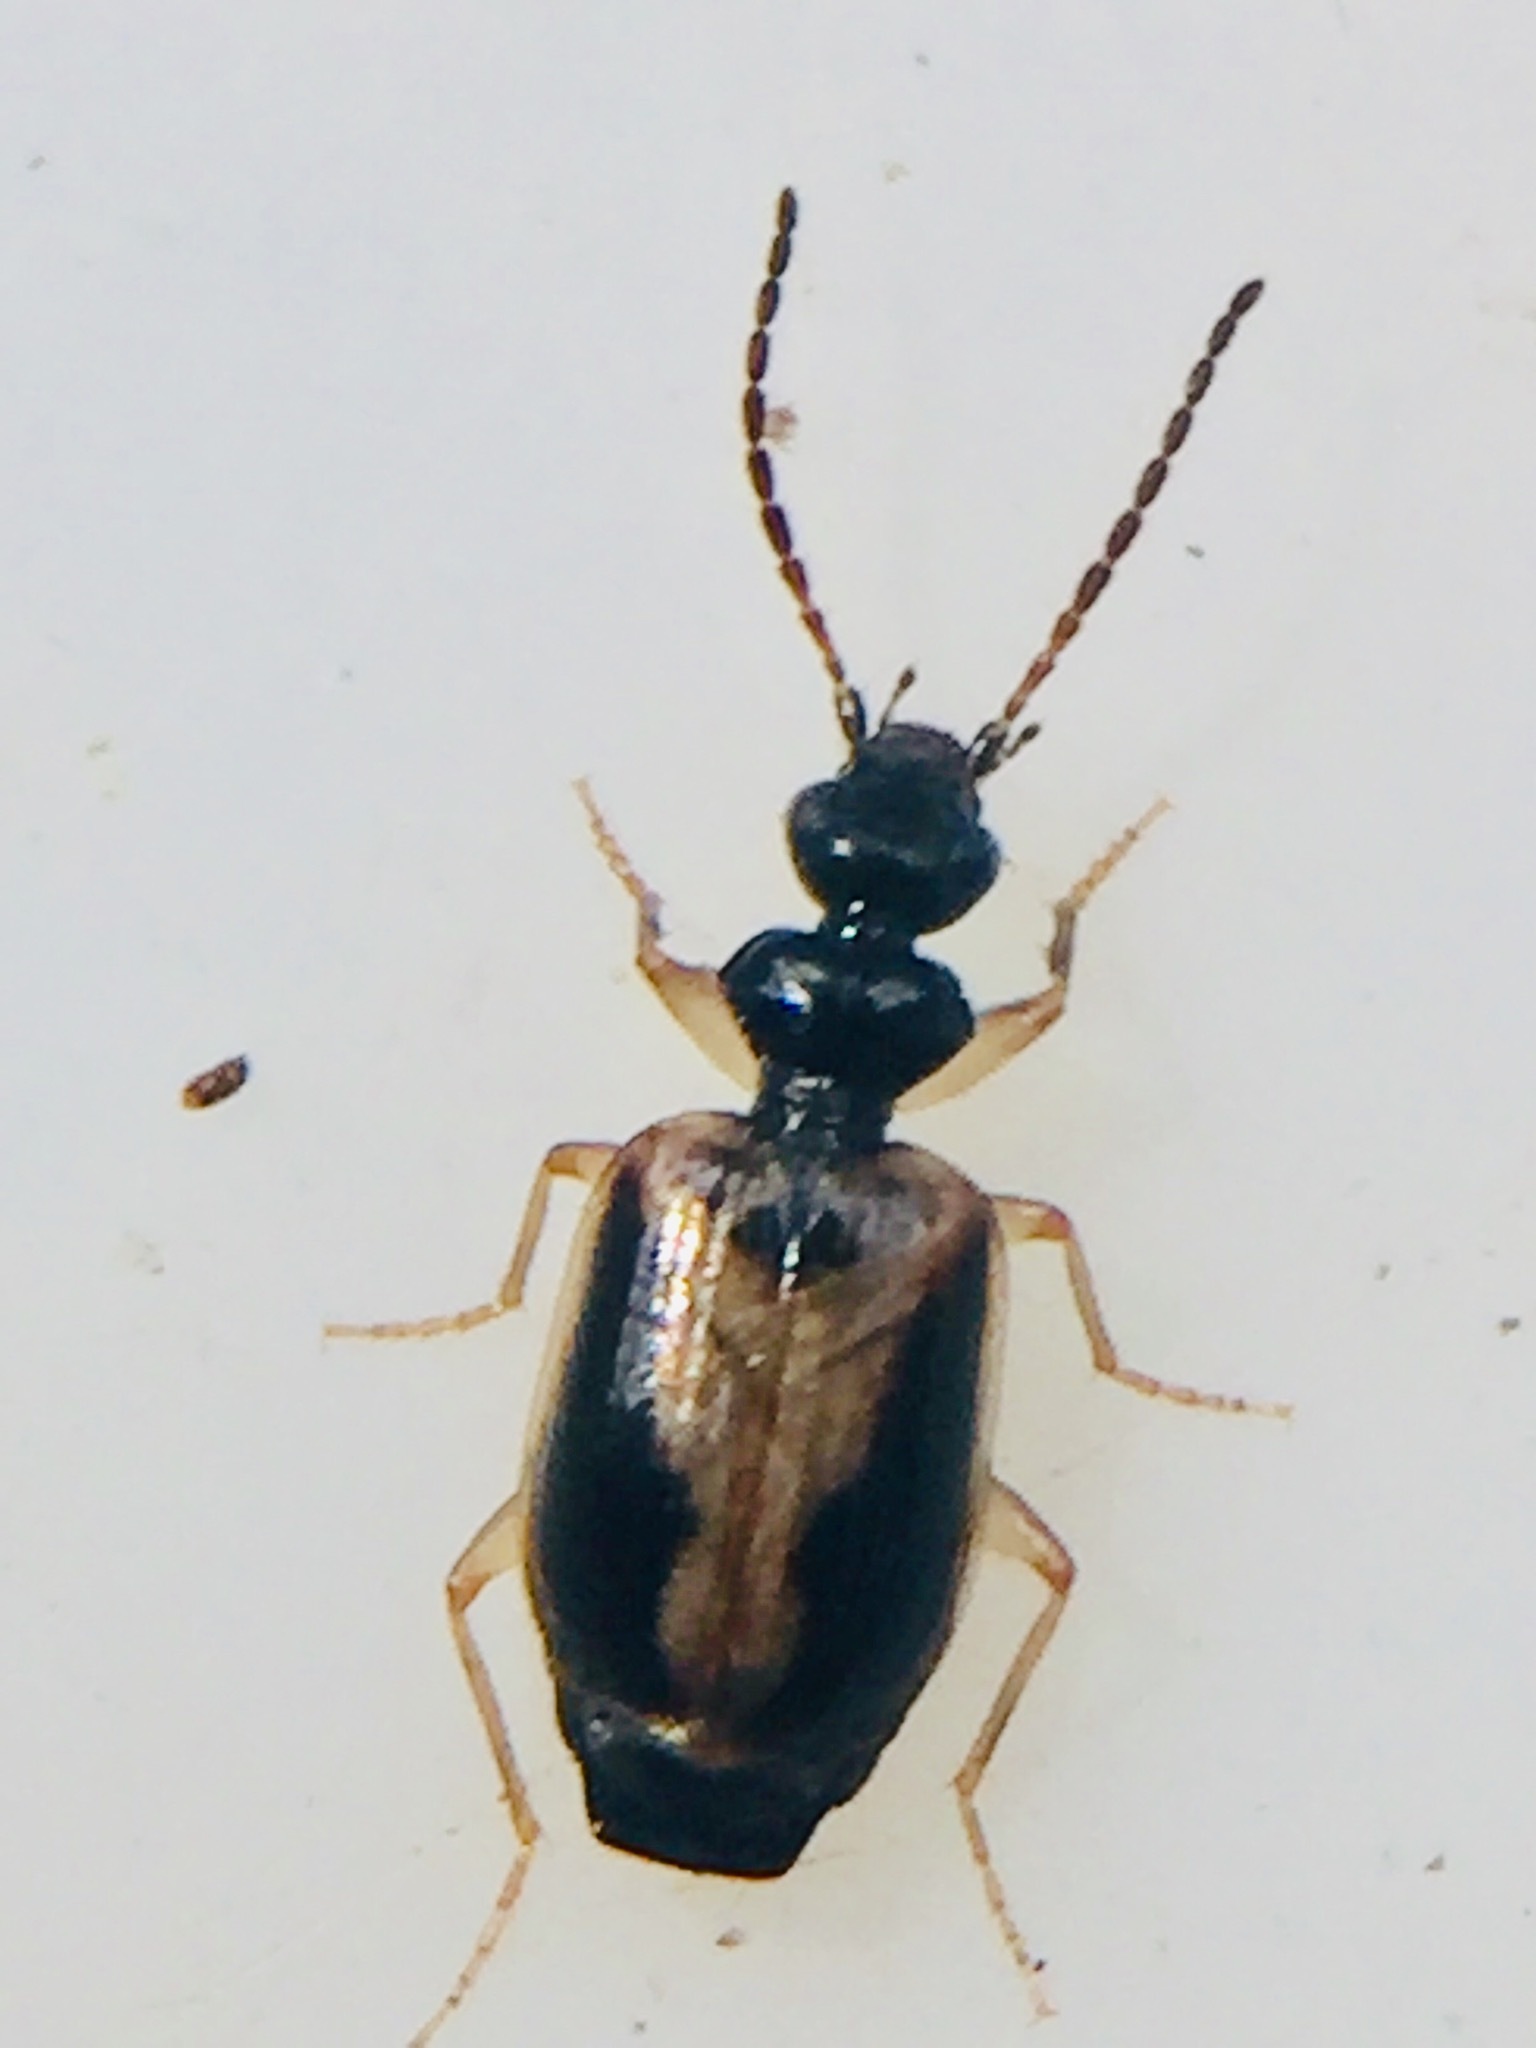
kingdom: Animalia
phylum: Arthropoda
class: Insecta
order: Coleoptera
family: Carabidae
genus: Pentagonica
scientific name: Pentagonica vittipennis
